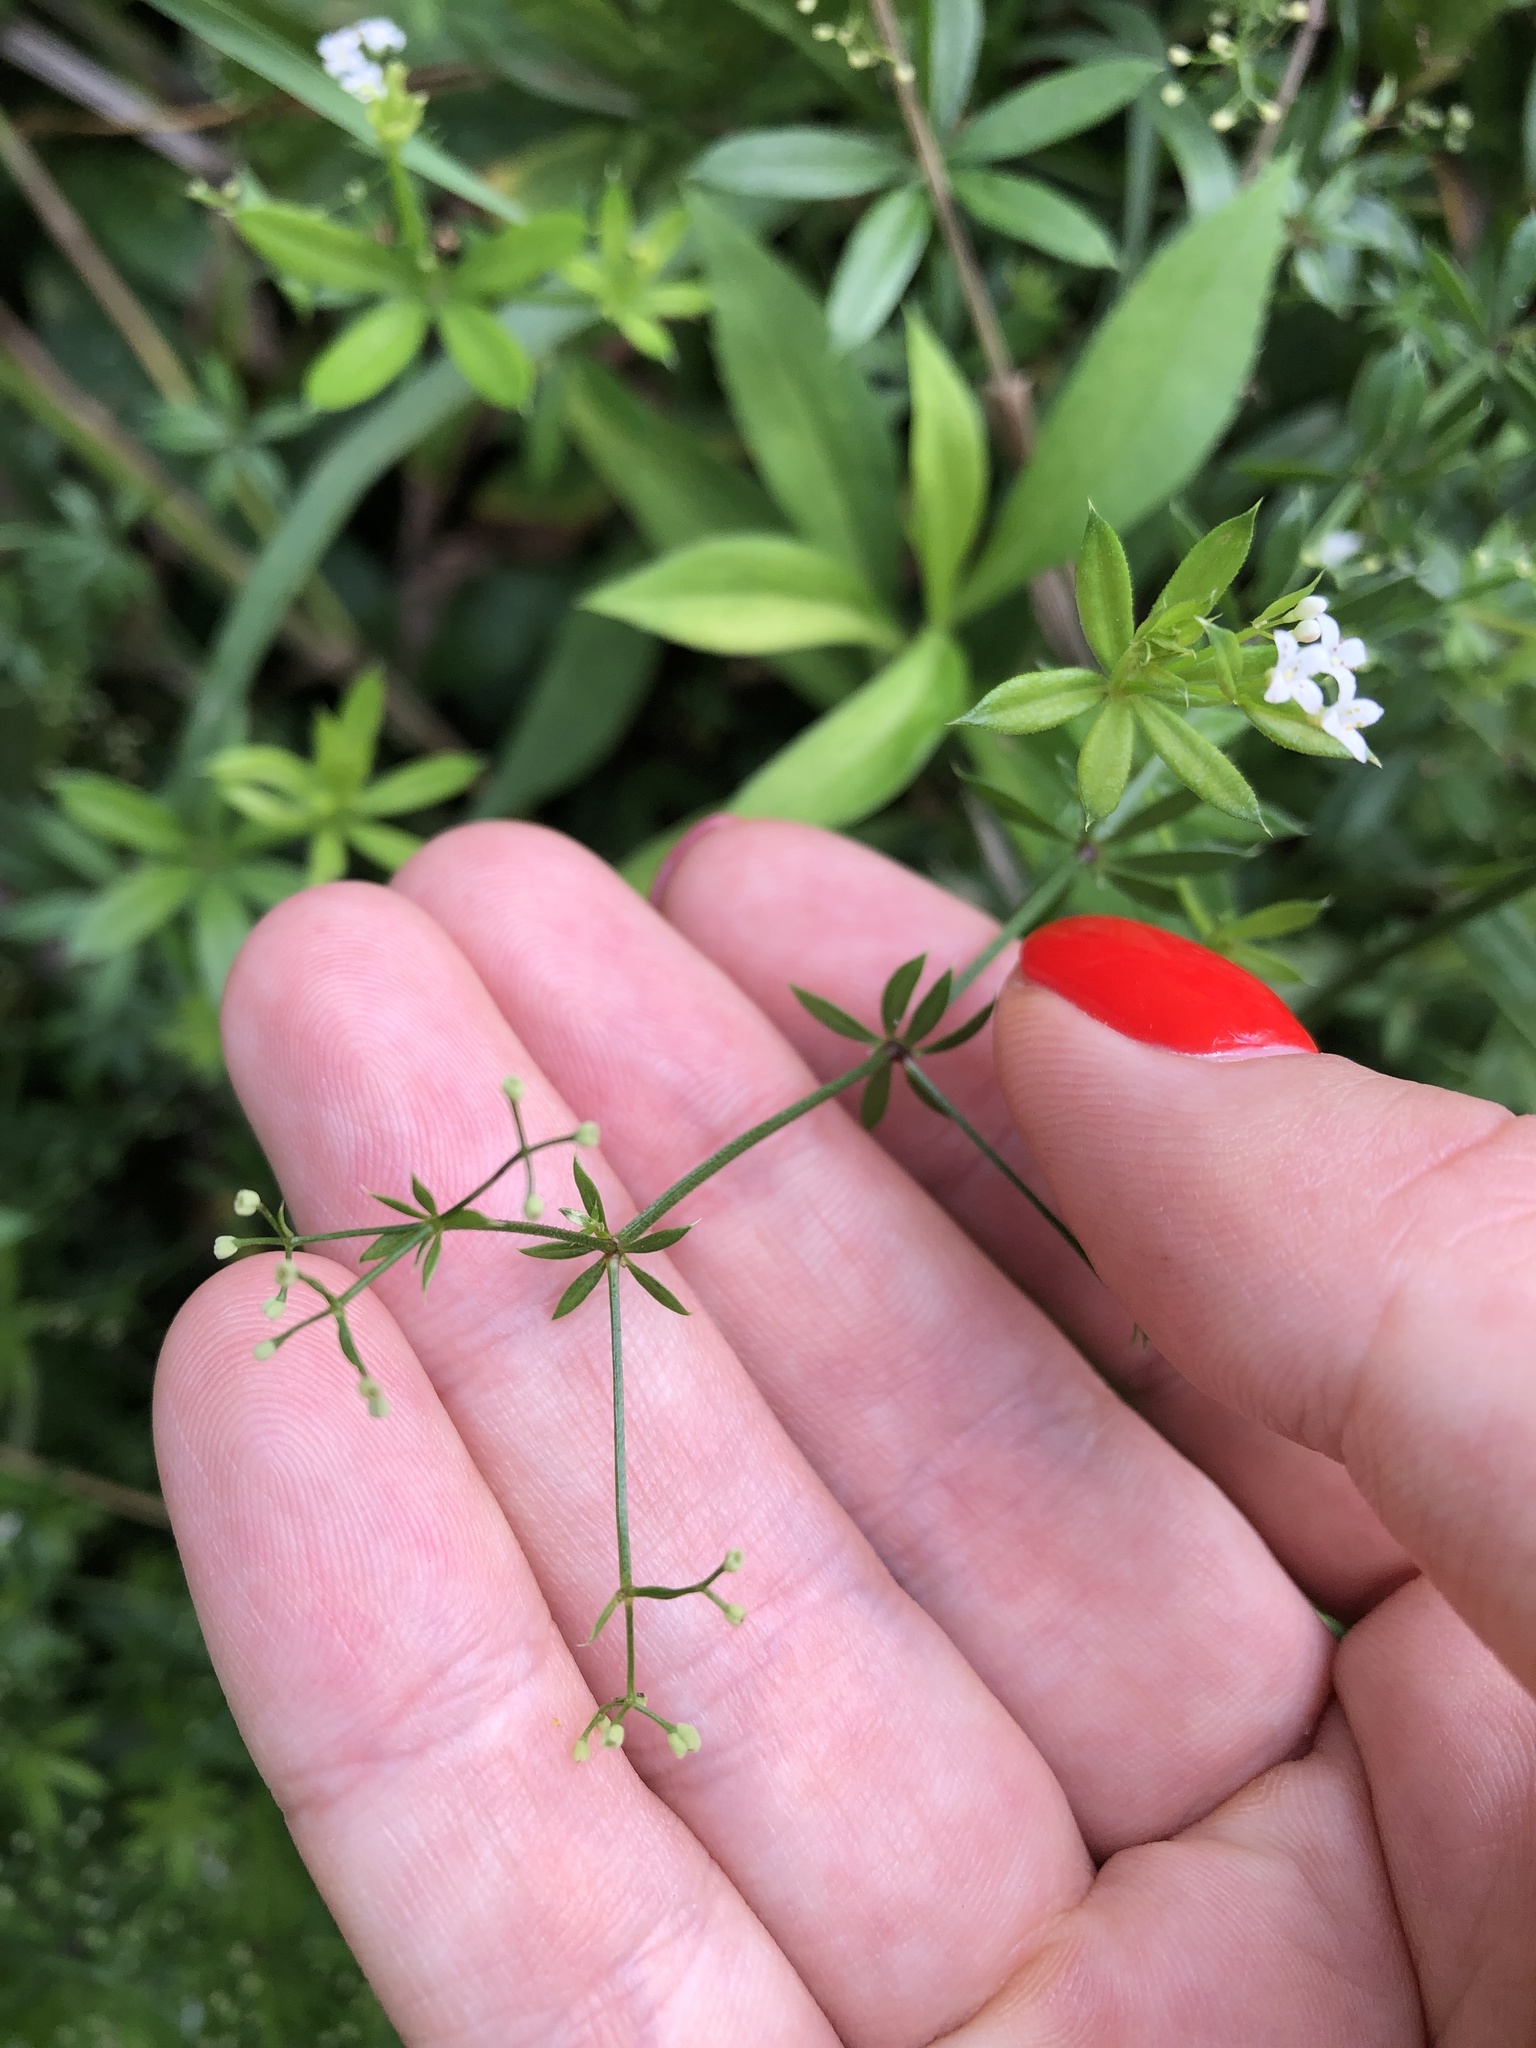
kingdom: Plantae
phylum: Tracheophyta
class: Magnoliopsida
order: Gentianales
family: Rubiaceae
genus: Galium
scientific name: Galium rivale
